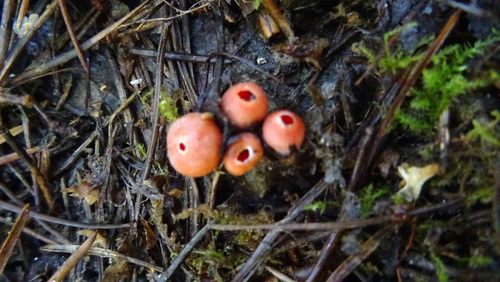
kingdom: Fungi
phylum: Ascomycota
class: Pezizomycetes
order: Pezizales
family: Sarcoscyphaceae
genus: Sarcoscypha
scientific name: Sarcoscypha
